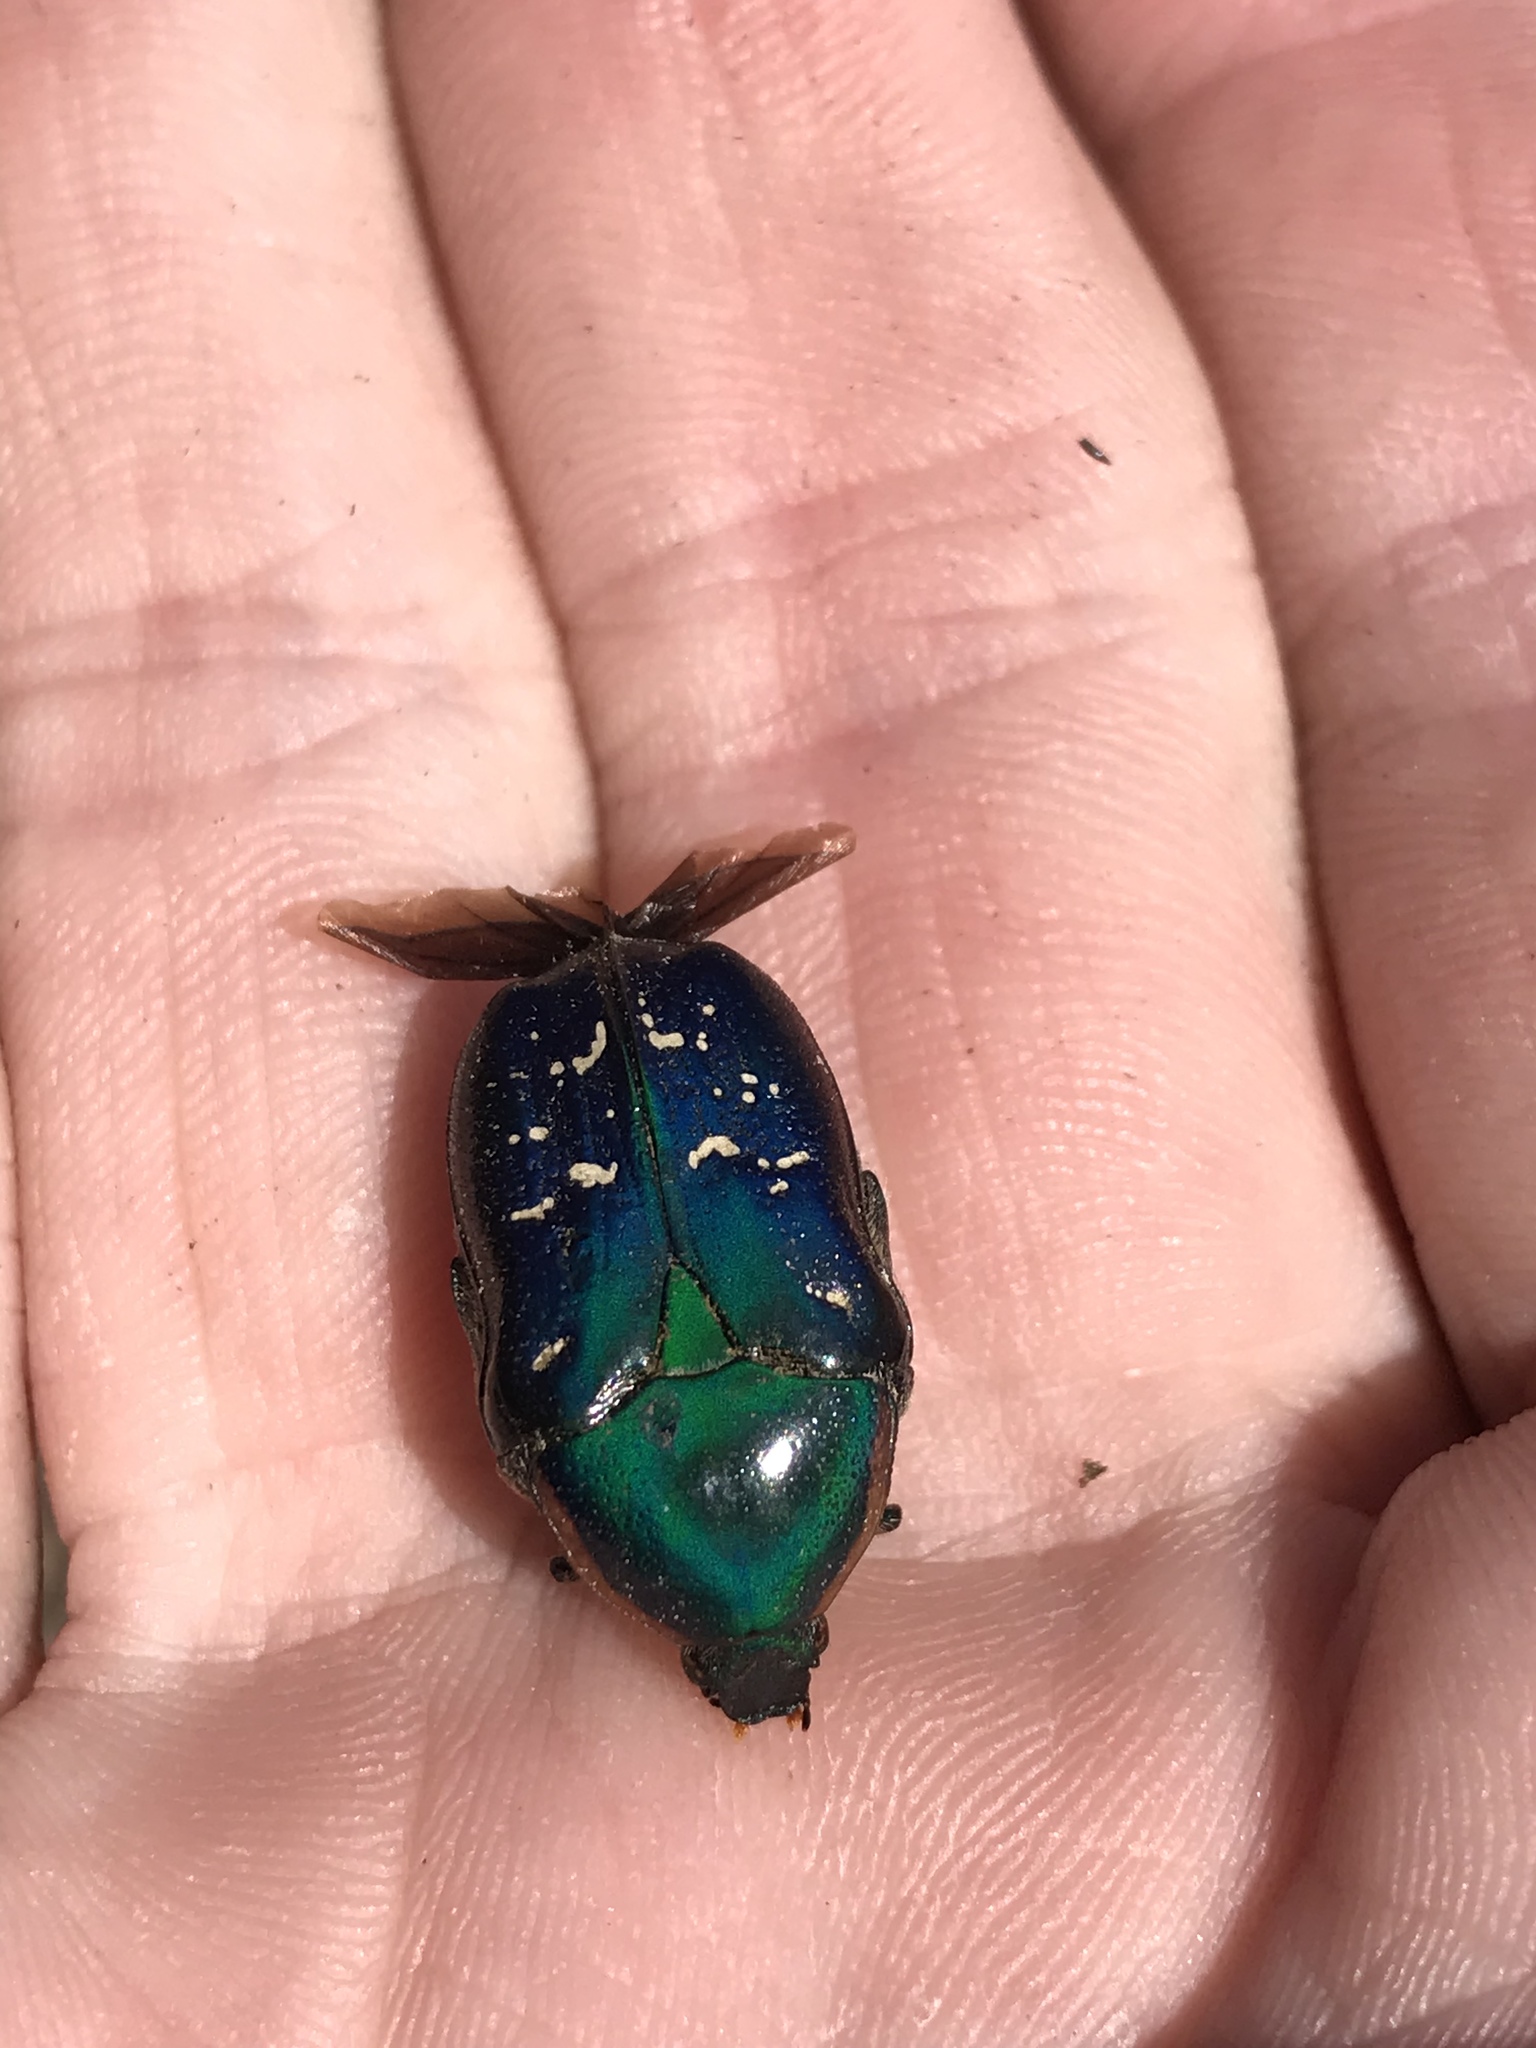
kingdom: Animalia
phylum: Arthropoda
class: Insecta
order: Coleoptera
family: Scarabaeidae
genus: Euphoria
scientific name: Euphoria fulgida
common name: Emerald euphoria
